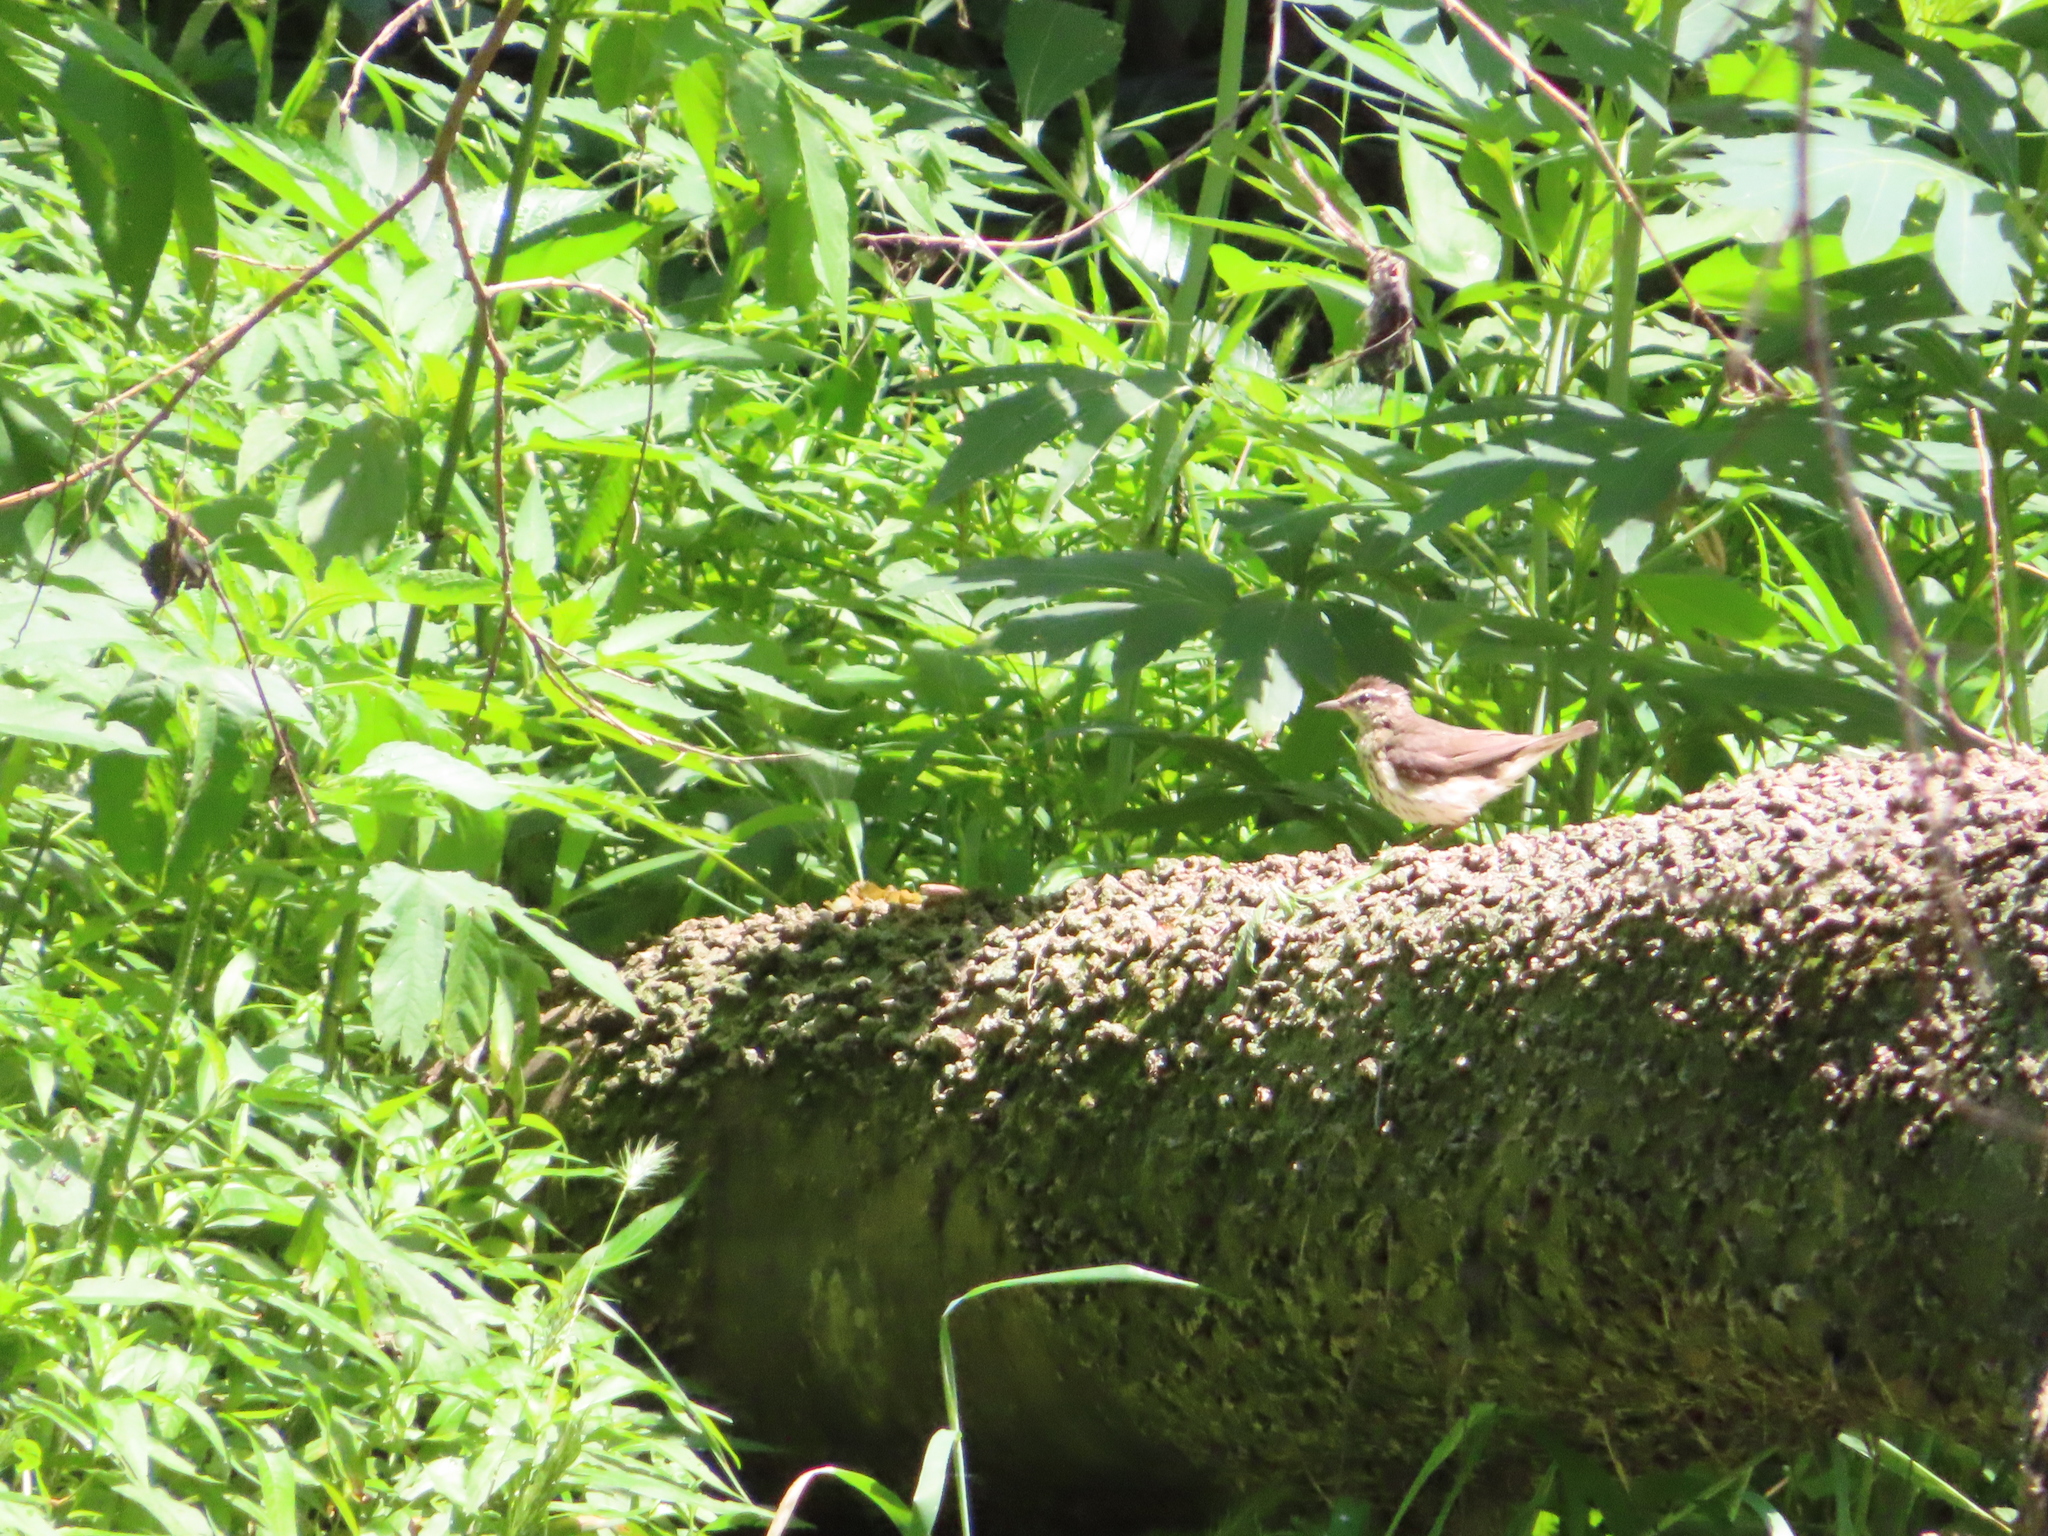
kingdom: Animalia
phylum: Chordata
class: Aves
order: Passeriformes
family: Parulidae
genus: Parkesia
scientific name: Parkesia motacilla
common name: Louisiana waterthrush
